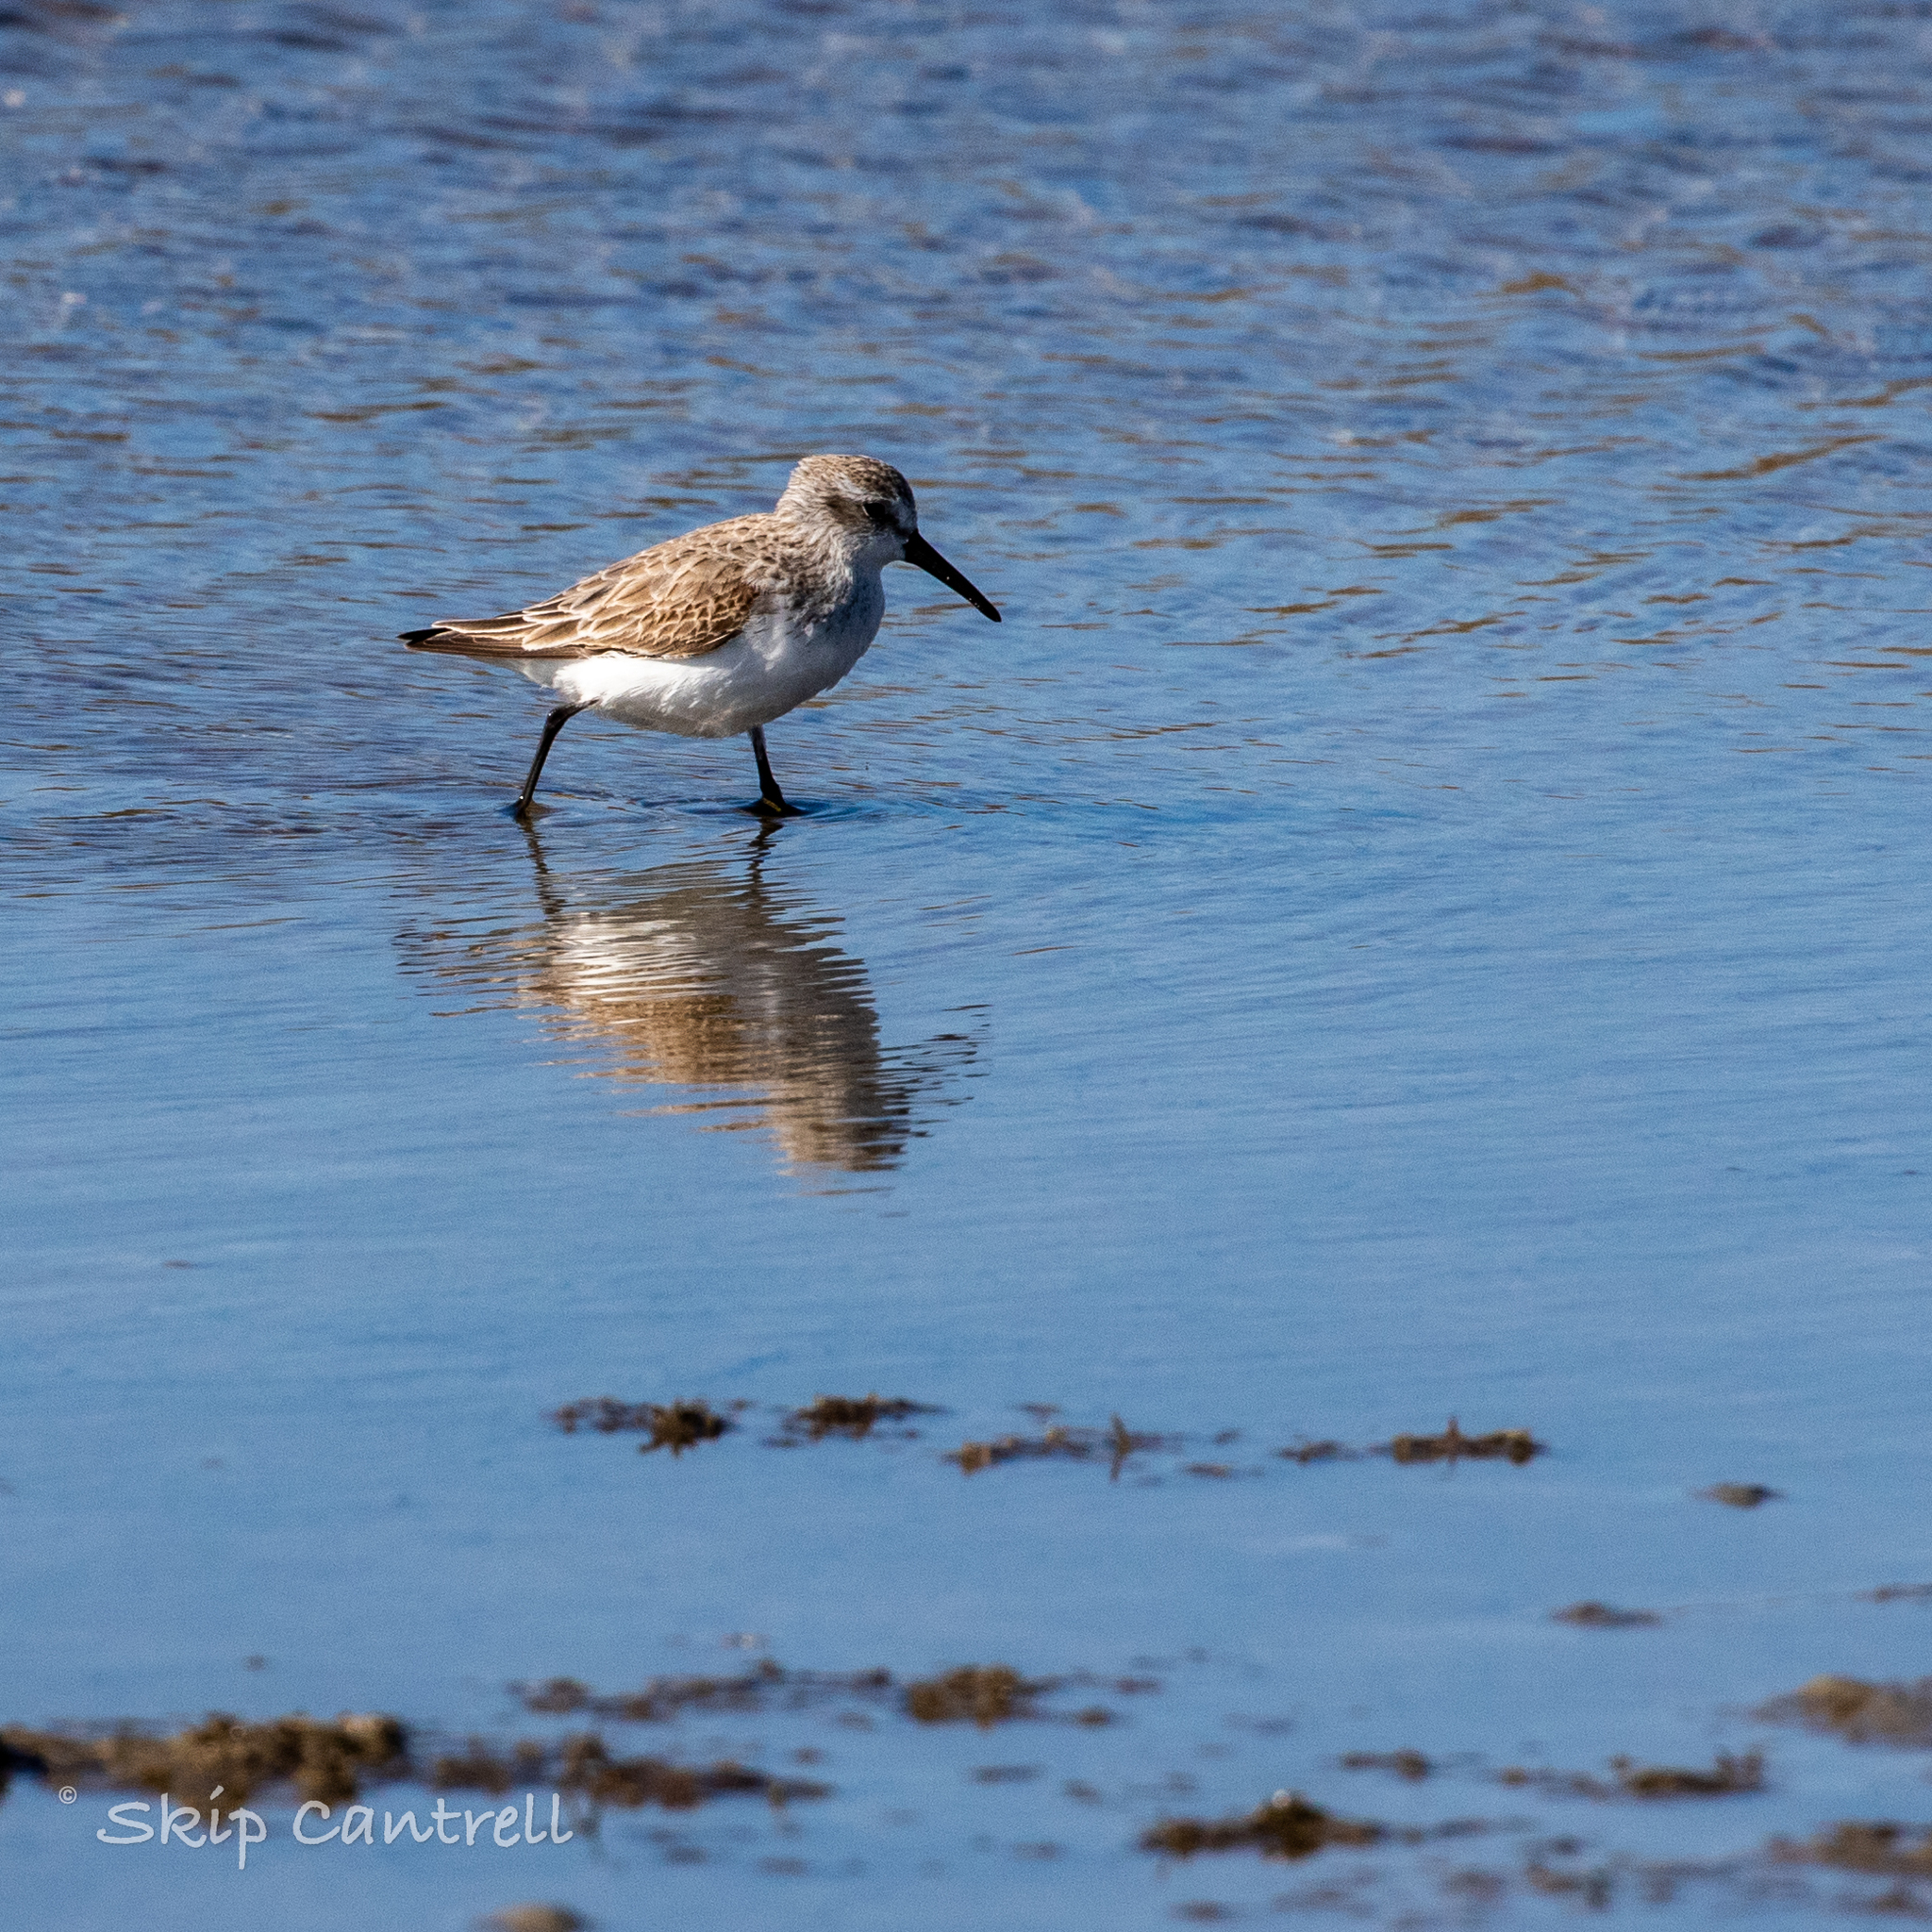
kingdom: Animalia
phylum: Chordata
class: Aves
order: Charadriiformes
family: Scolopacidae
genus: Calidris
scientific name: Calidris mauri
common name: Western sandpiper
